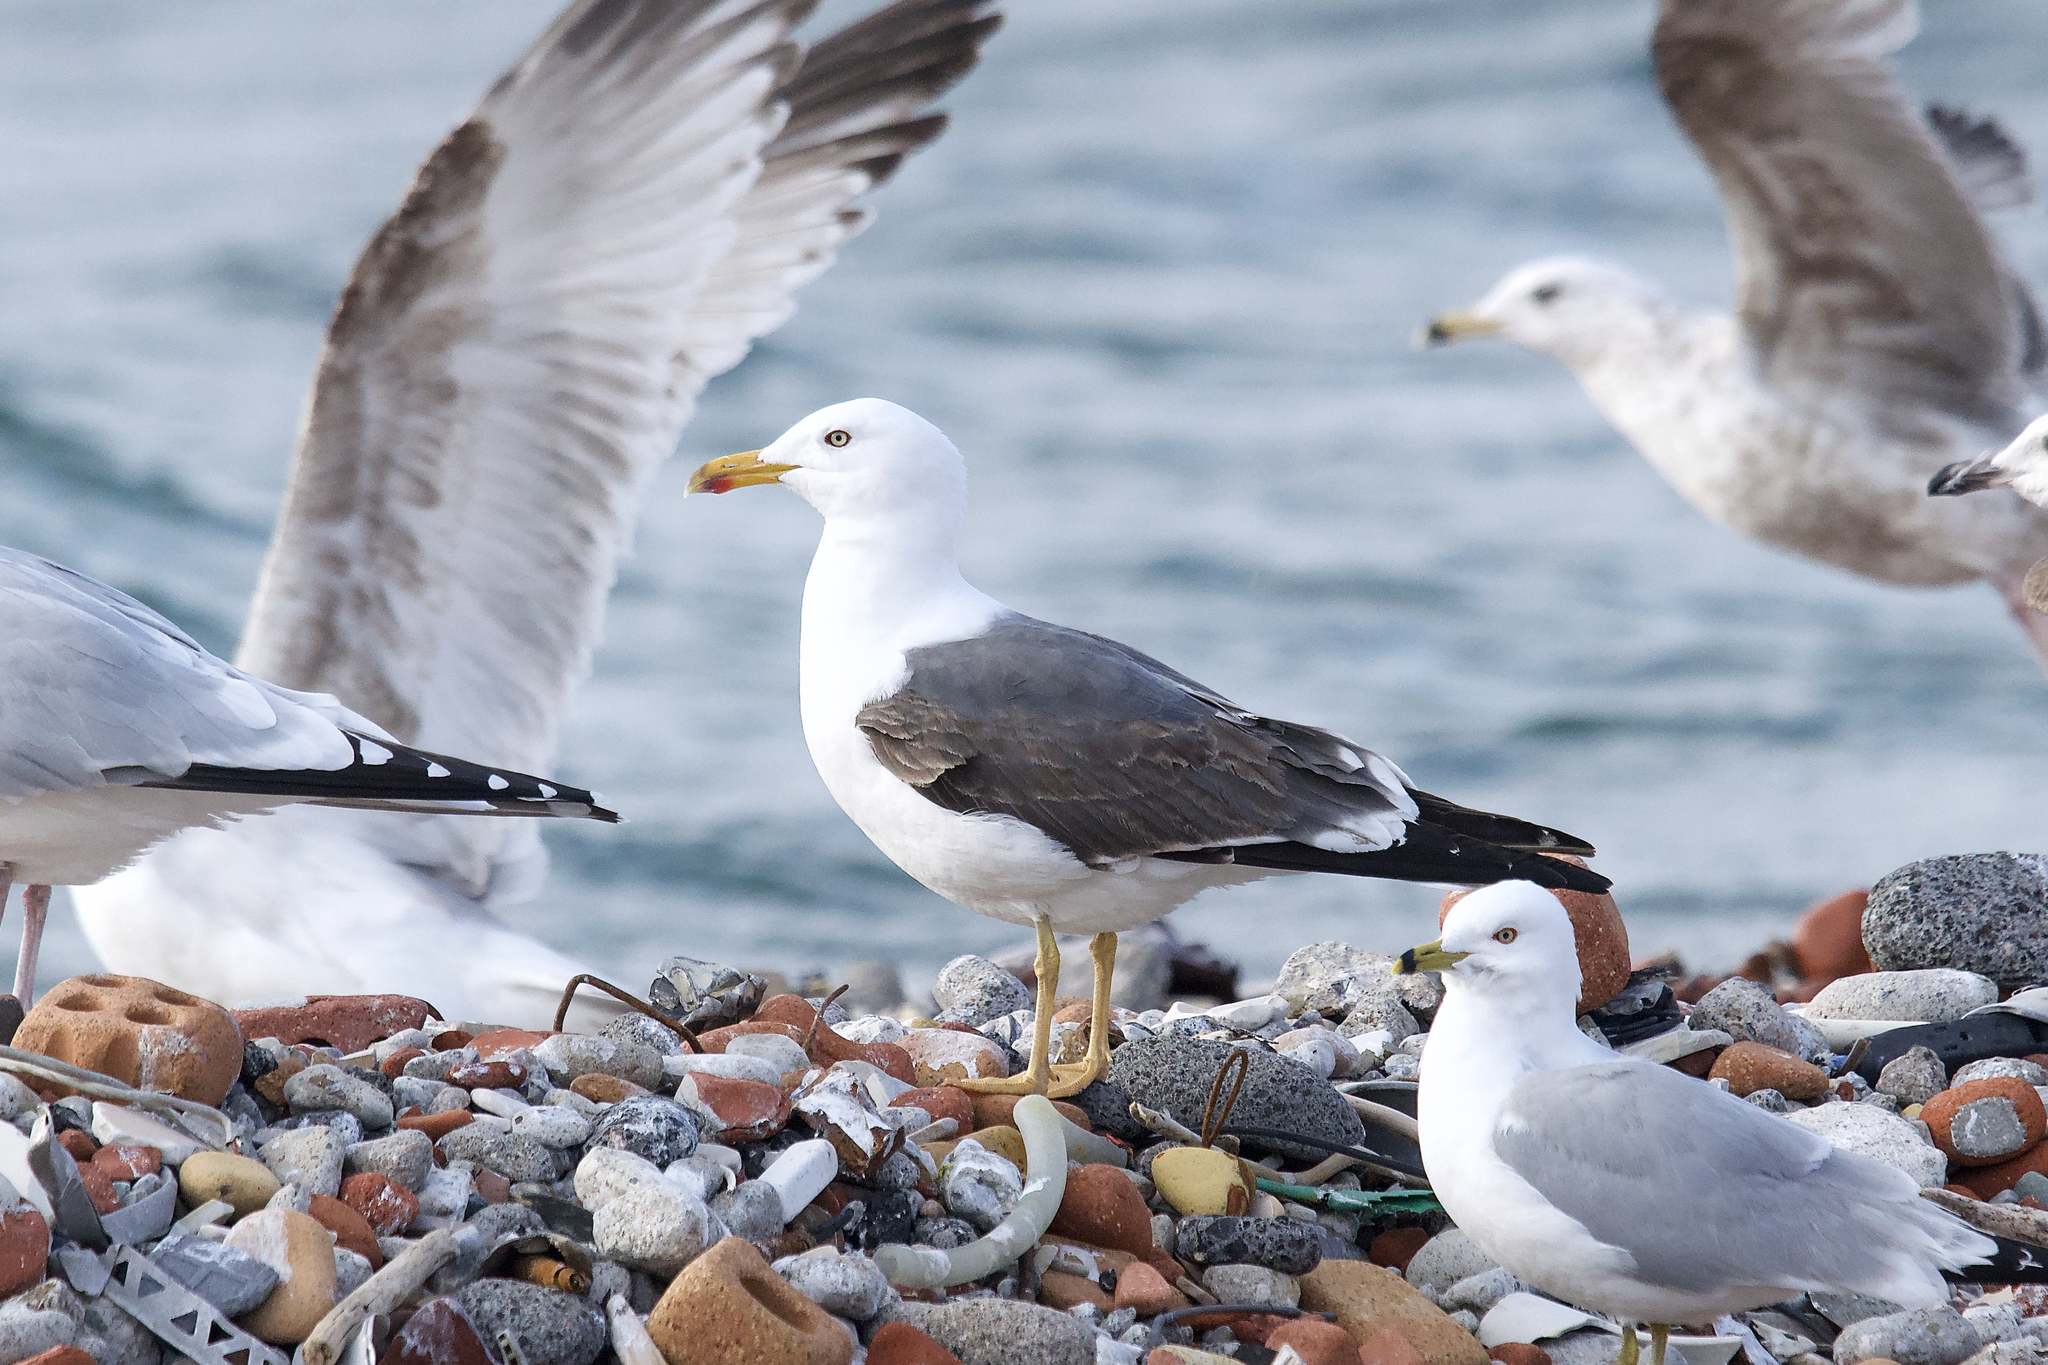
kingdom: Animalia
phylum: Chordata
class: Aves
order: Charadriiformes
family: Laridae
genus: Larus
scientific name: Larus fuscus
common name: Lesser black-backed gull
